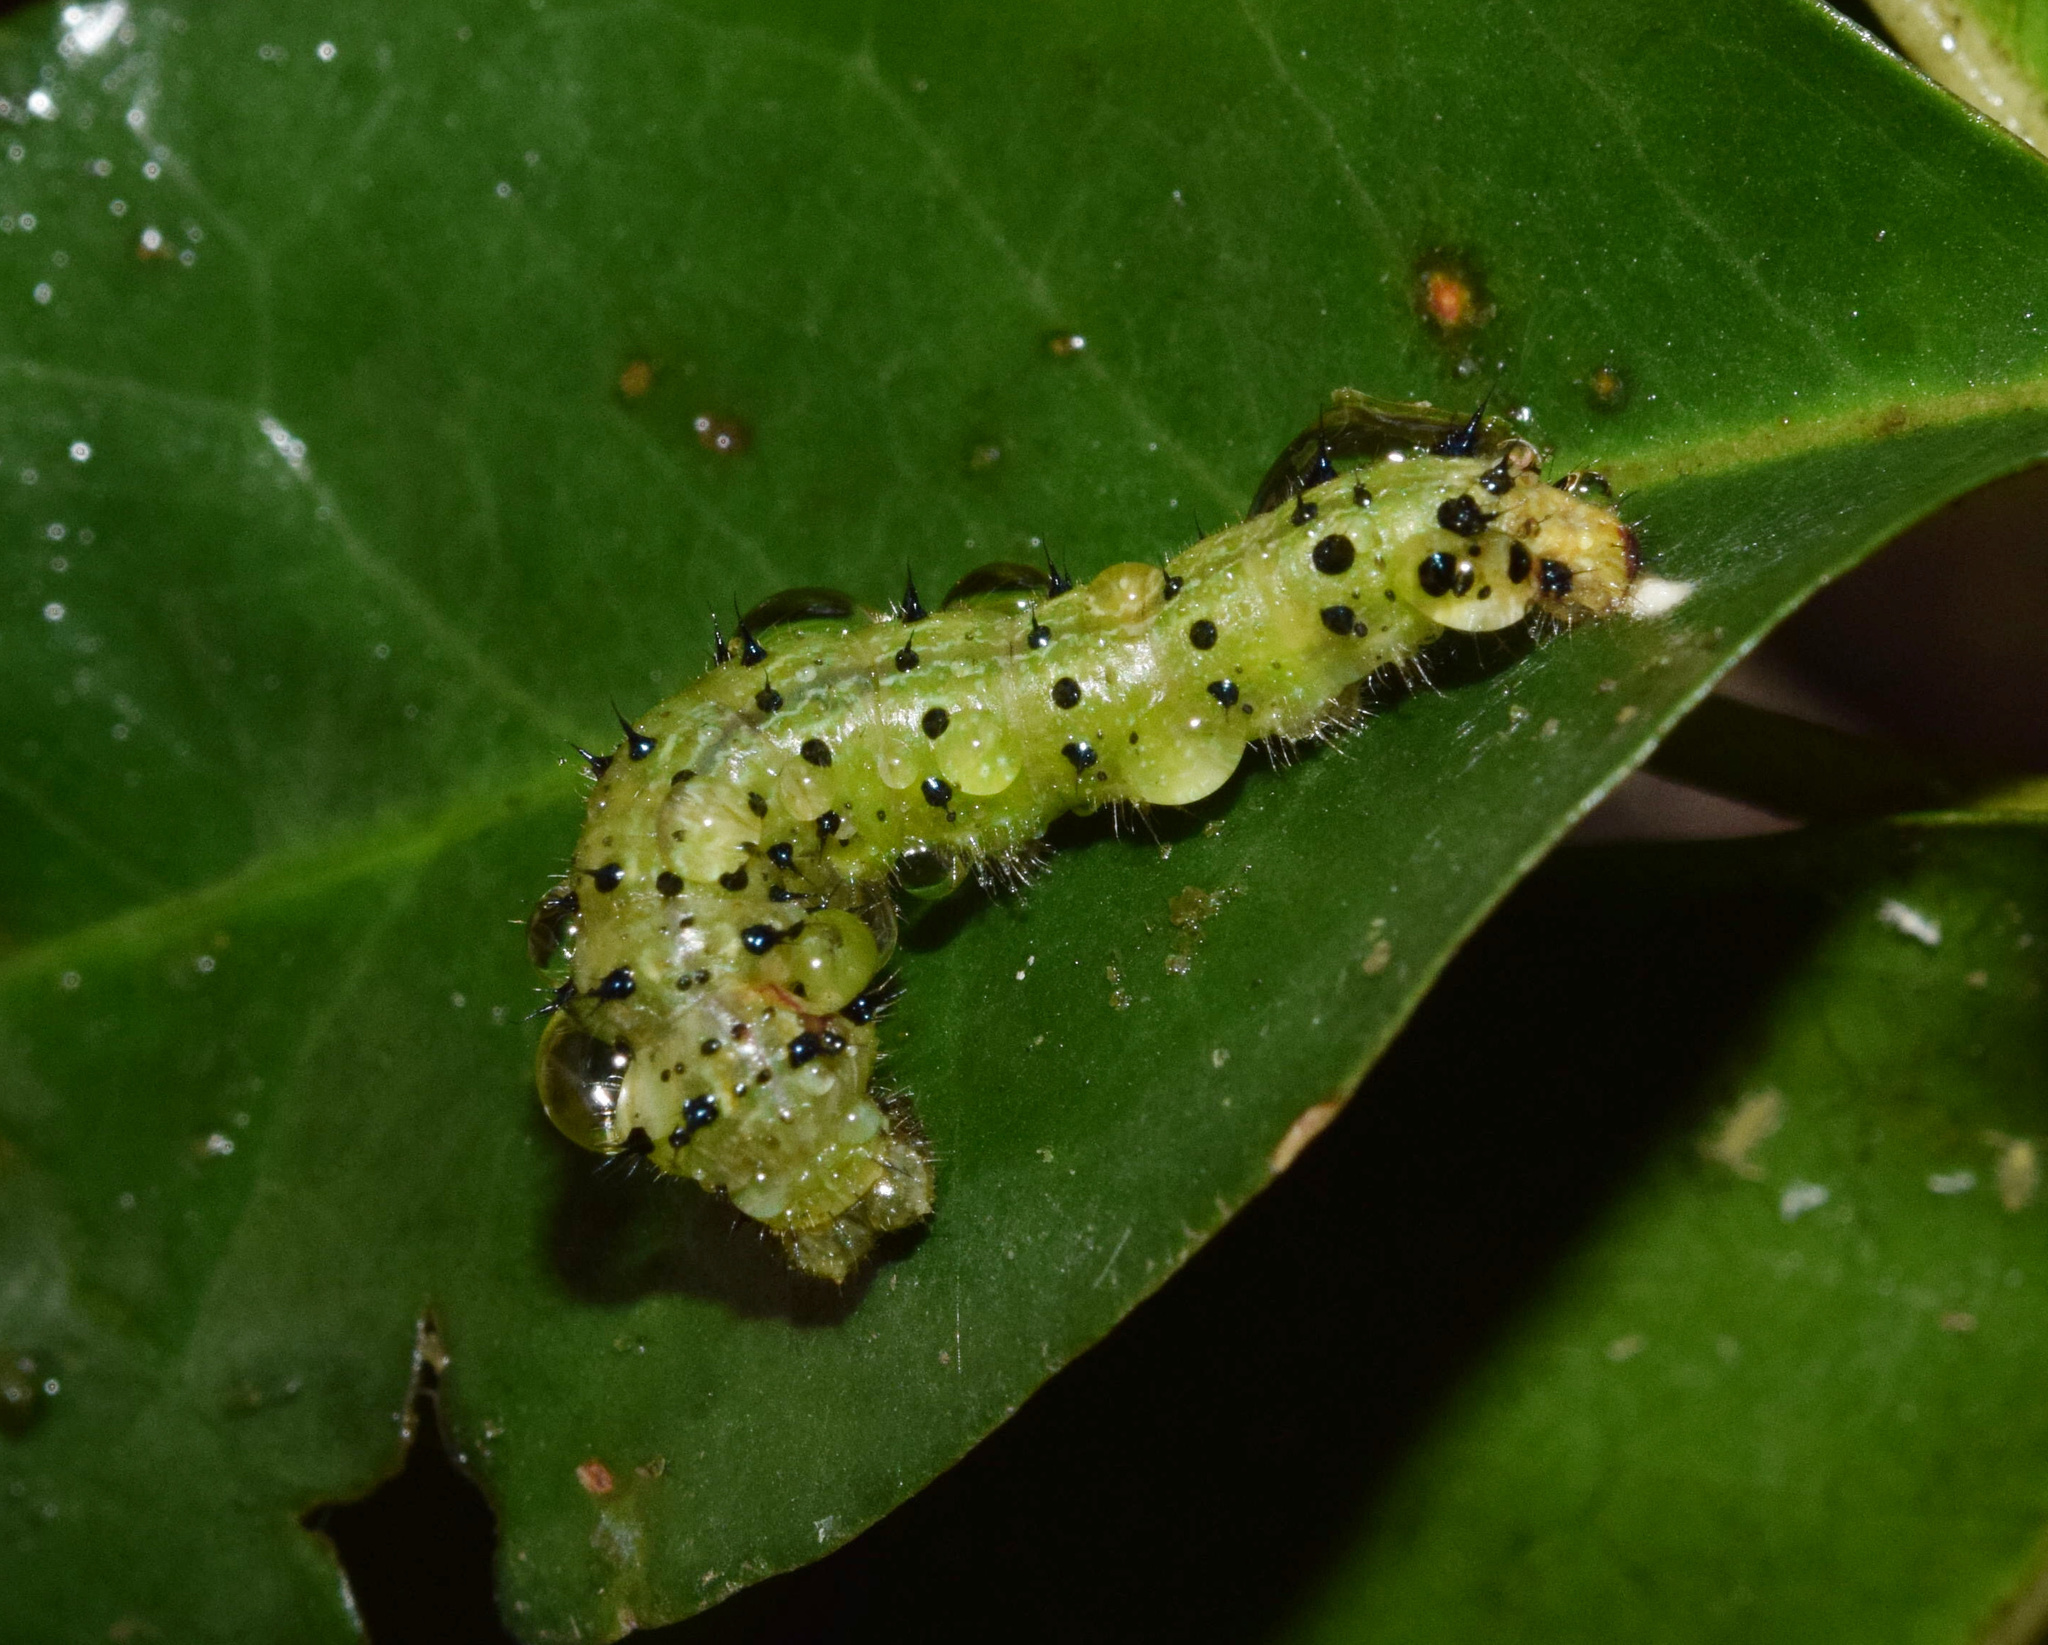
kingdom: Animalia
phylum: Arthropoda
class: Insecta
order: Lepidoptera
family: Nymphalidae
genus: Asterope
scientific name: Asterope boisduvali
